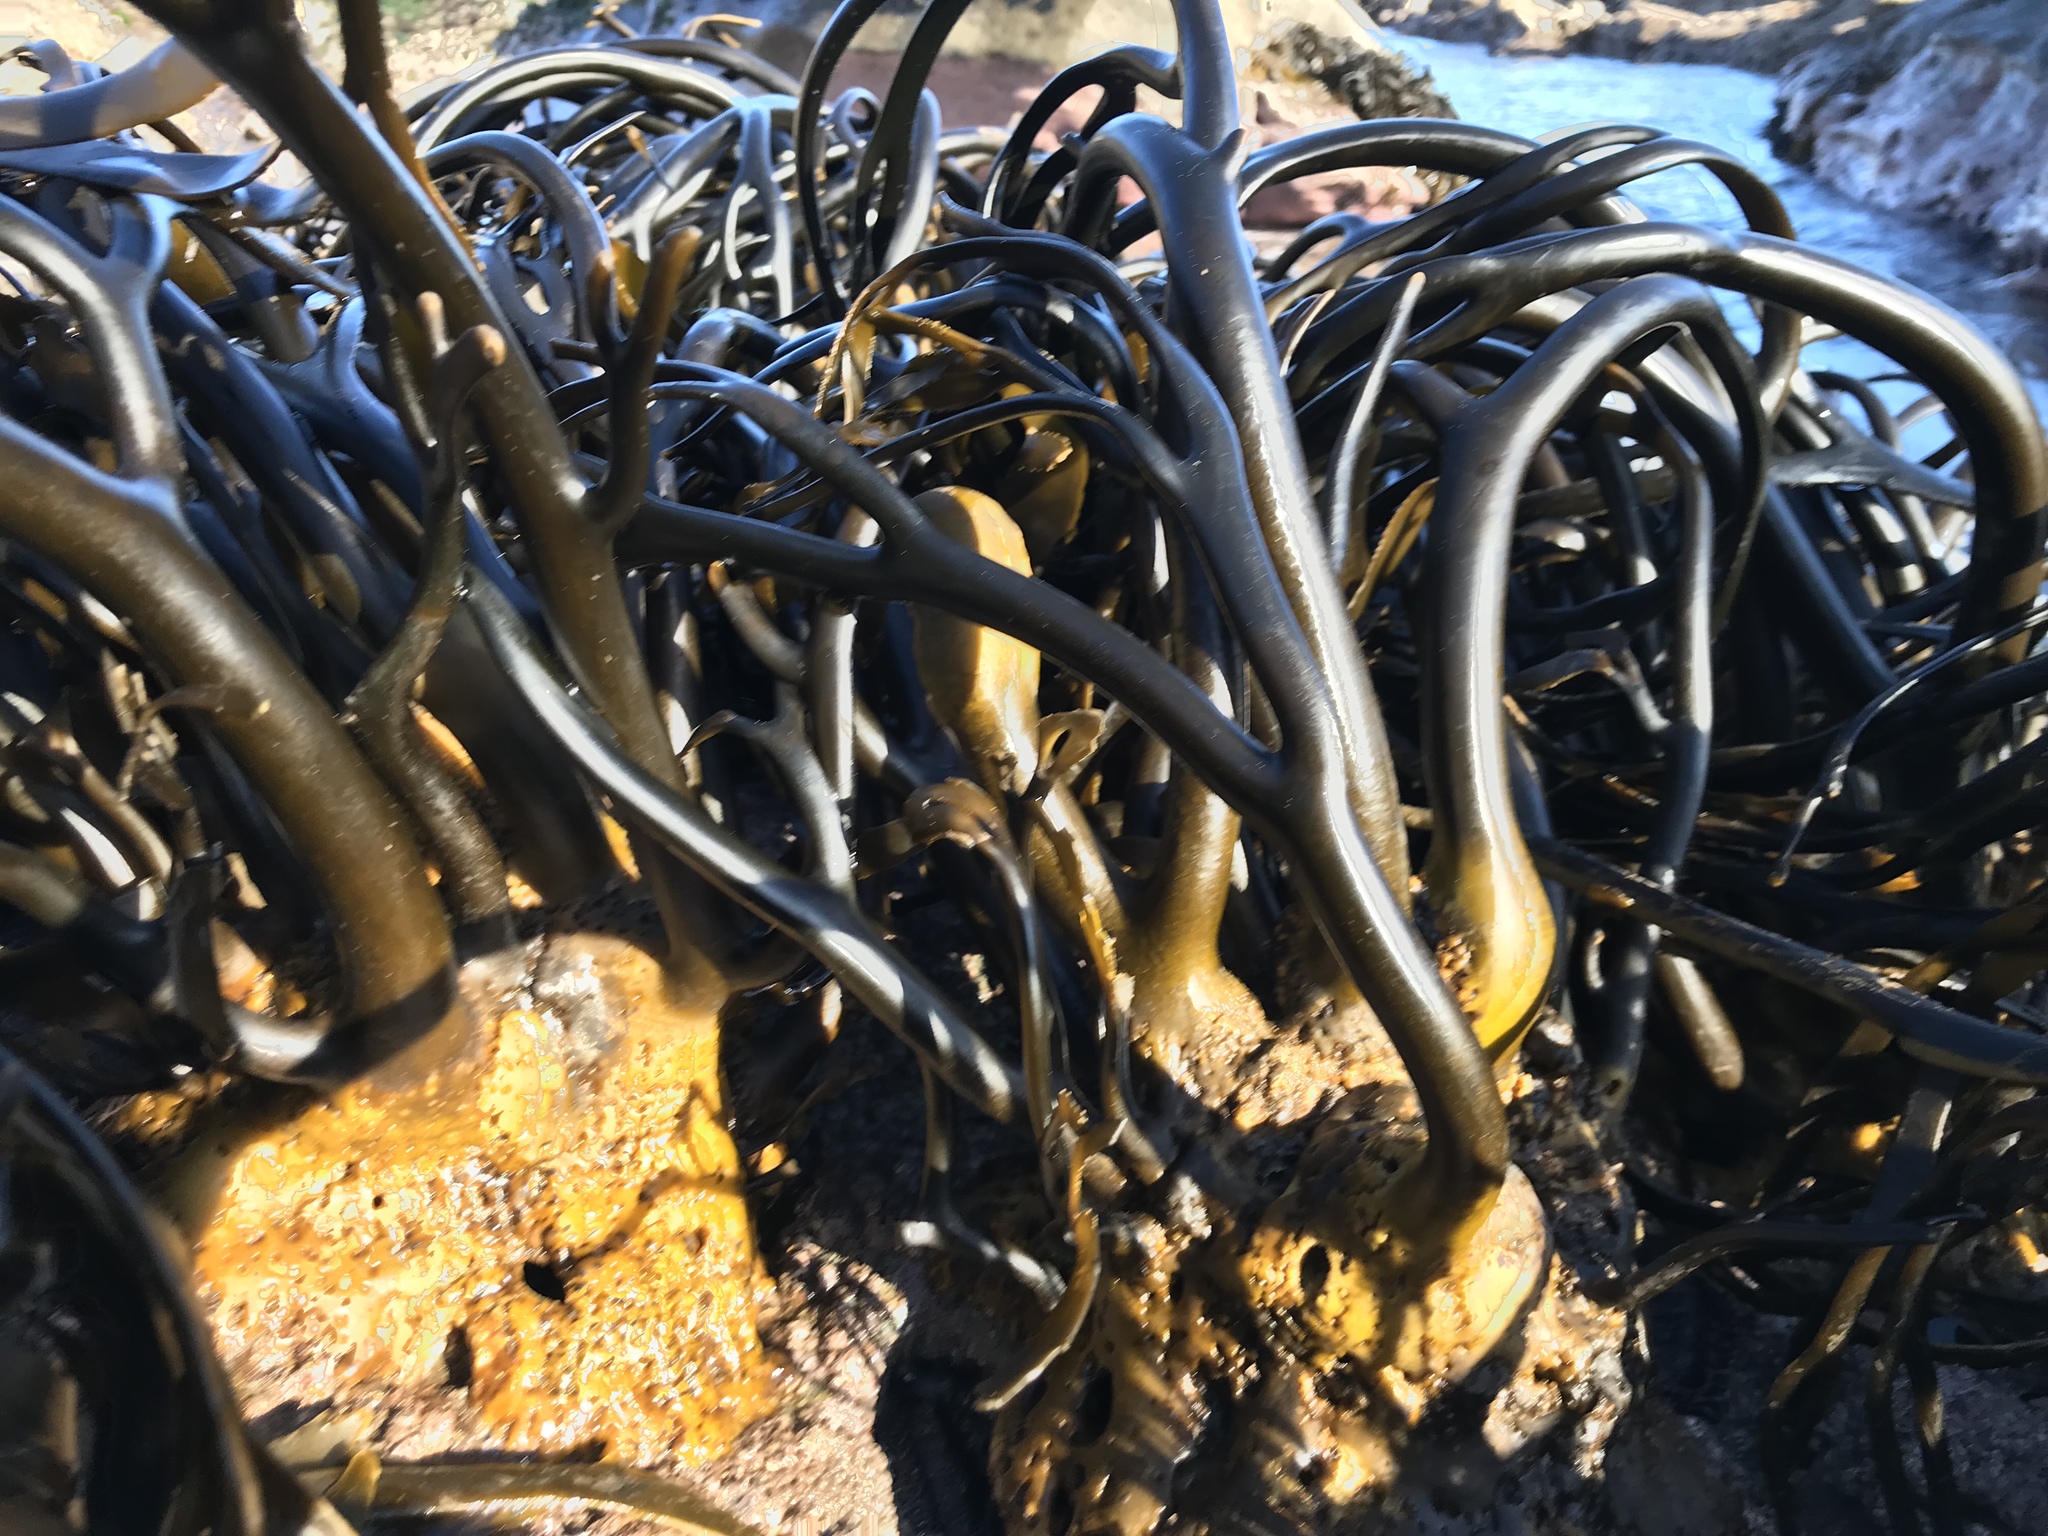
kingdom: Chromista
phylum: Ochrophyta
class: Phaeophyceae
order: Laminariales
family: Lessoniaceae
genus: Lessonia
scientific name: Lessonia spicata
